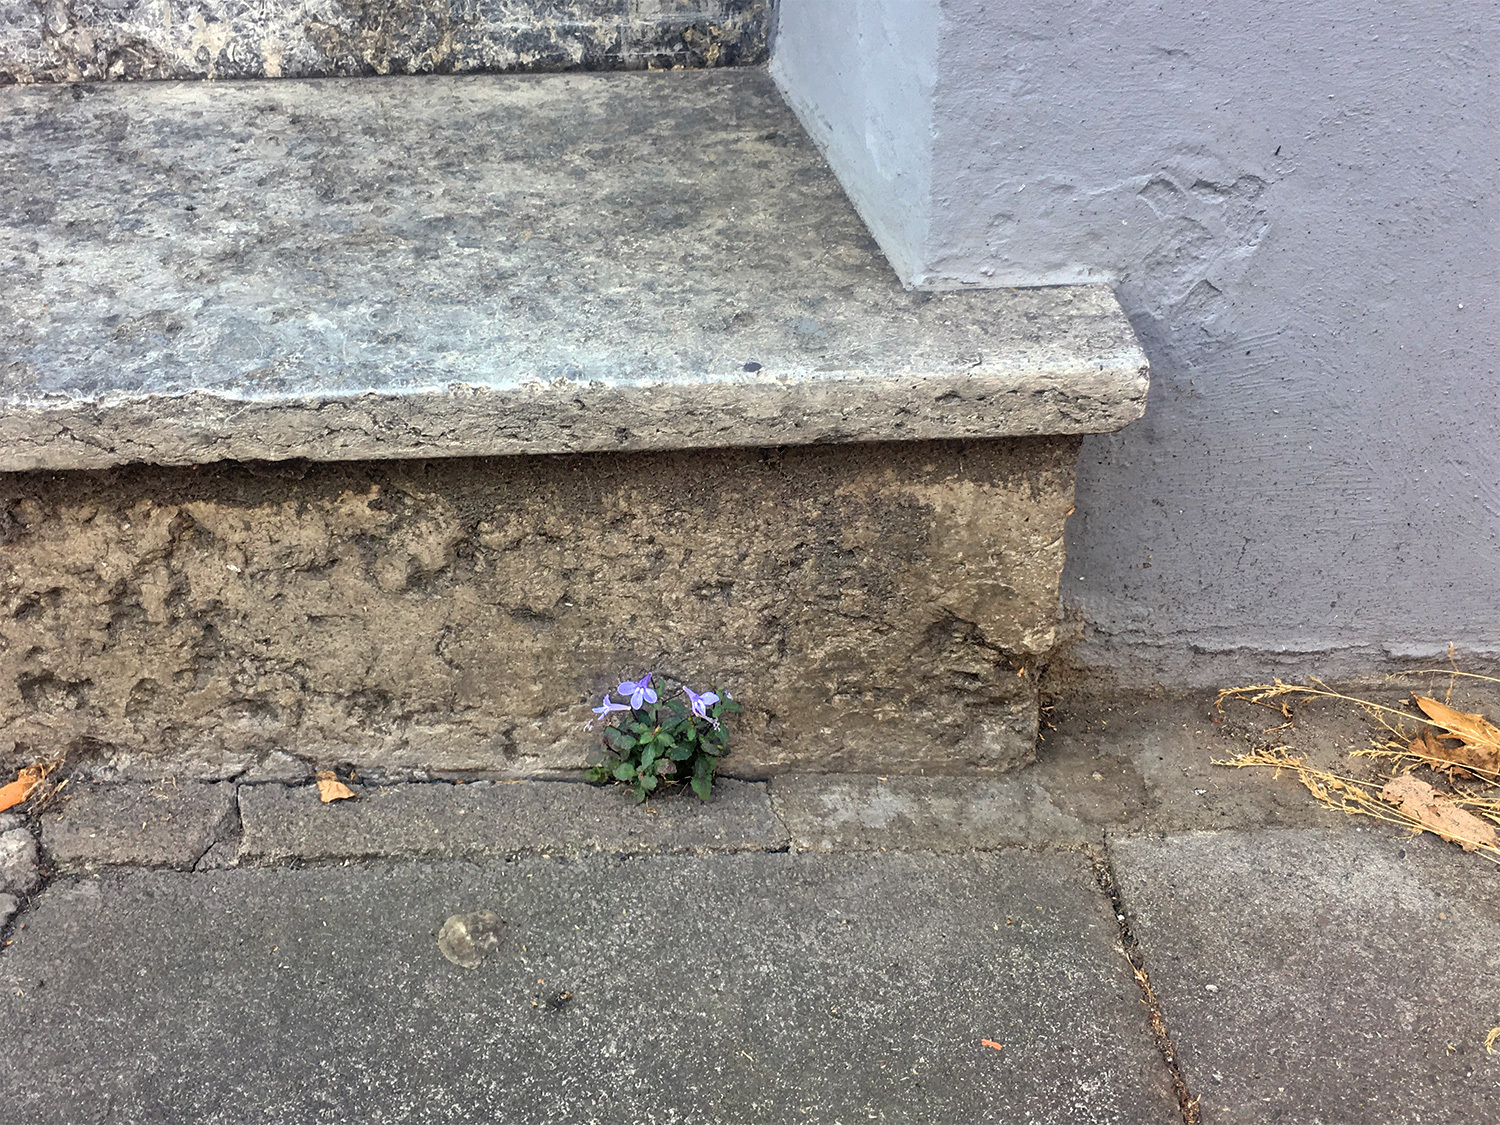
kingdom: Plantae
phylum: Tracheophyta
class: Magnoliopsida
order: Asterales
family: Campanulaceae
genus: Lobelia
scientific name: Lobelia erinus
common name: Edging lobelia
